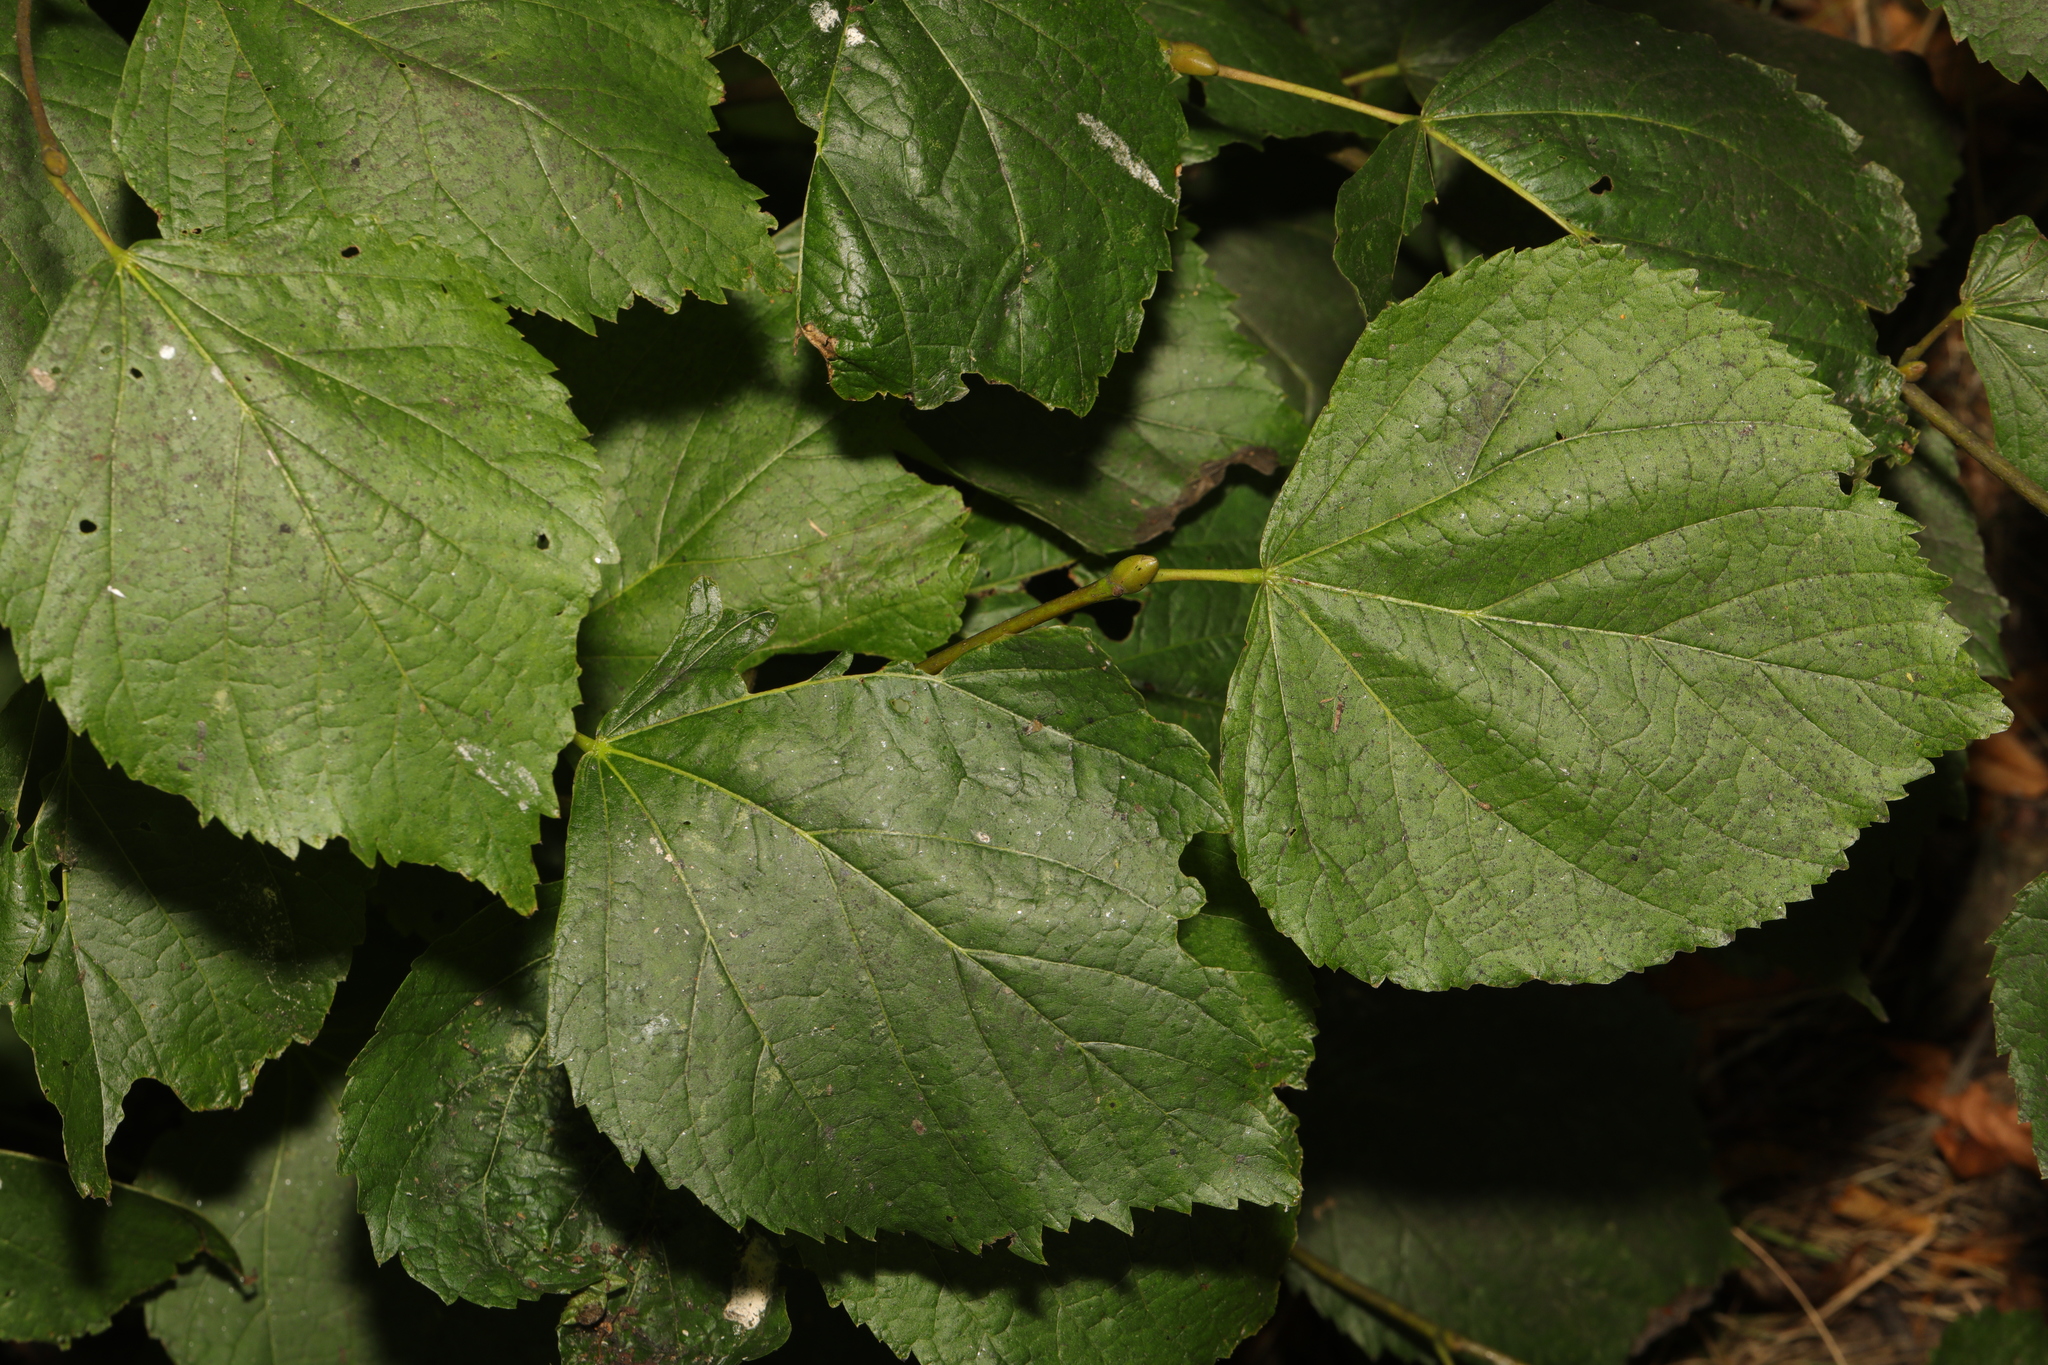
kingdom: Plantae
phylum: Tracheophyta
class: Magnoliopsida
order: Malvales
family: Malvaceae
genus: Tilia
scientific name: Tilia europaea
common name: European linden
